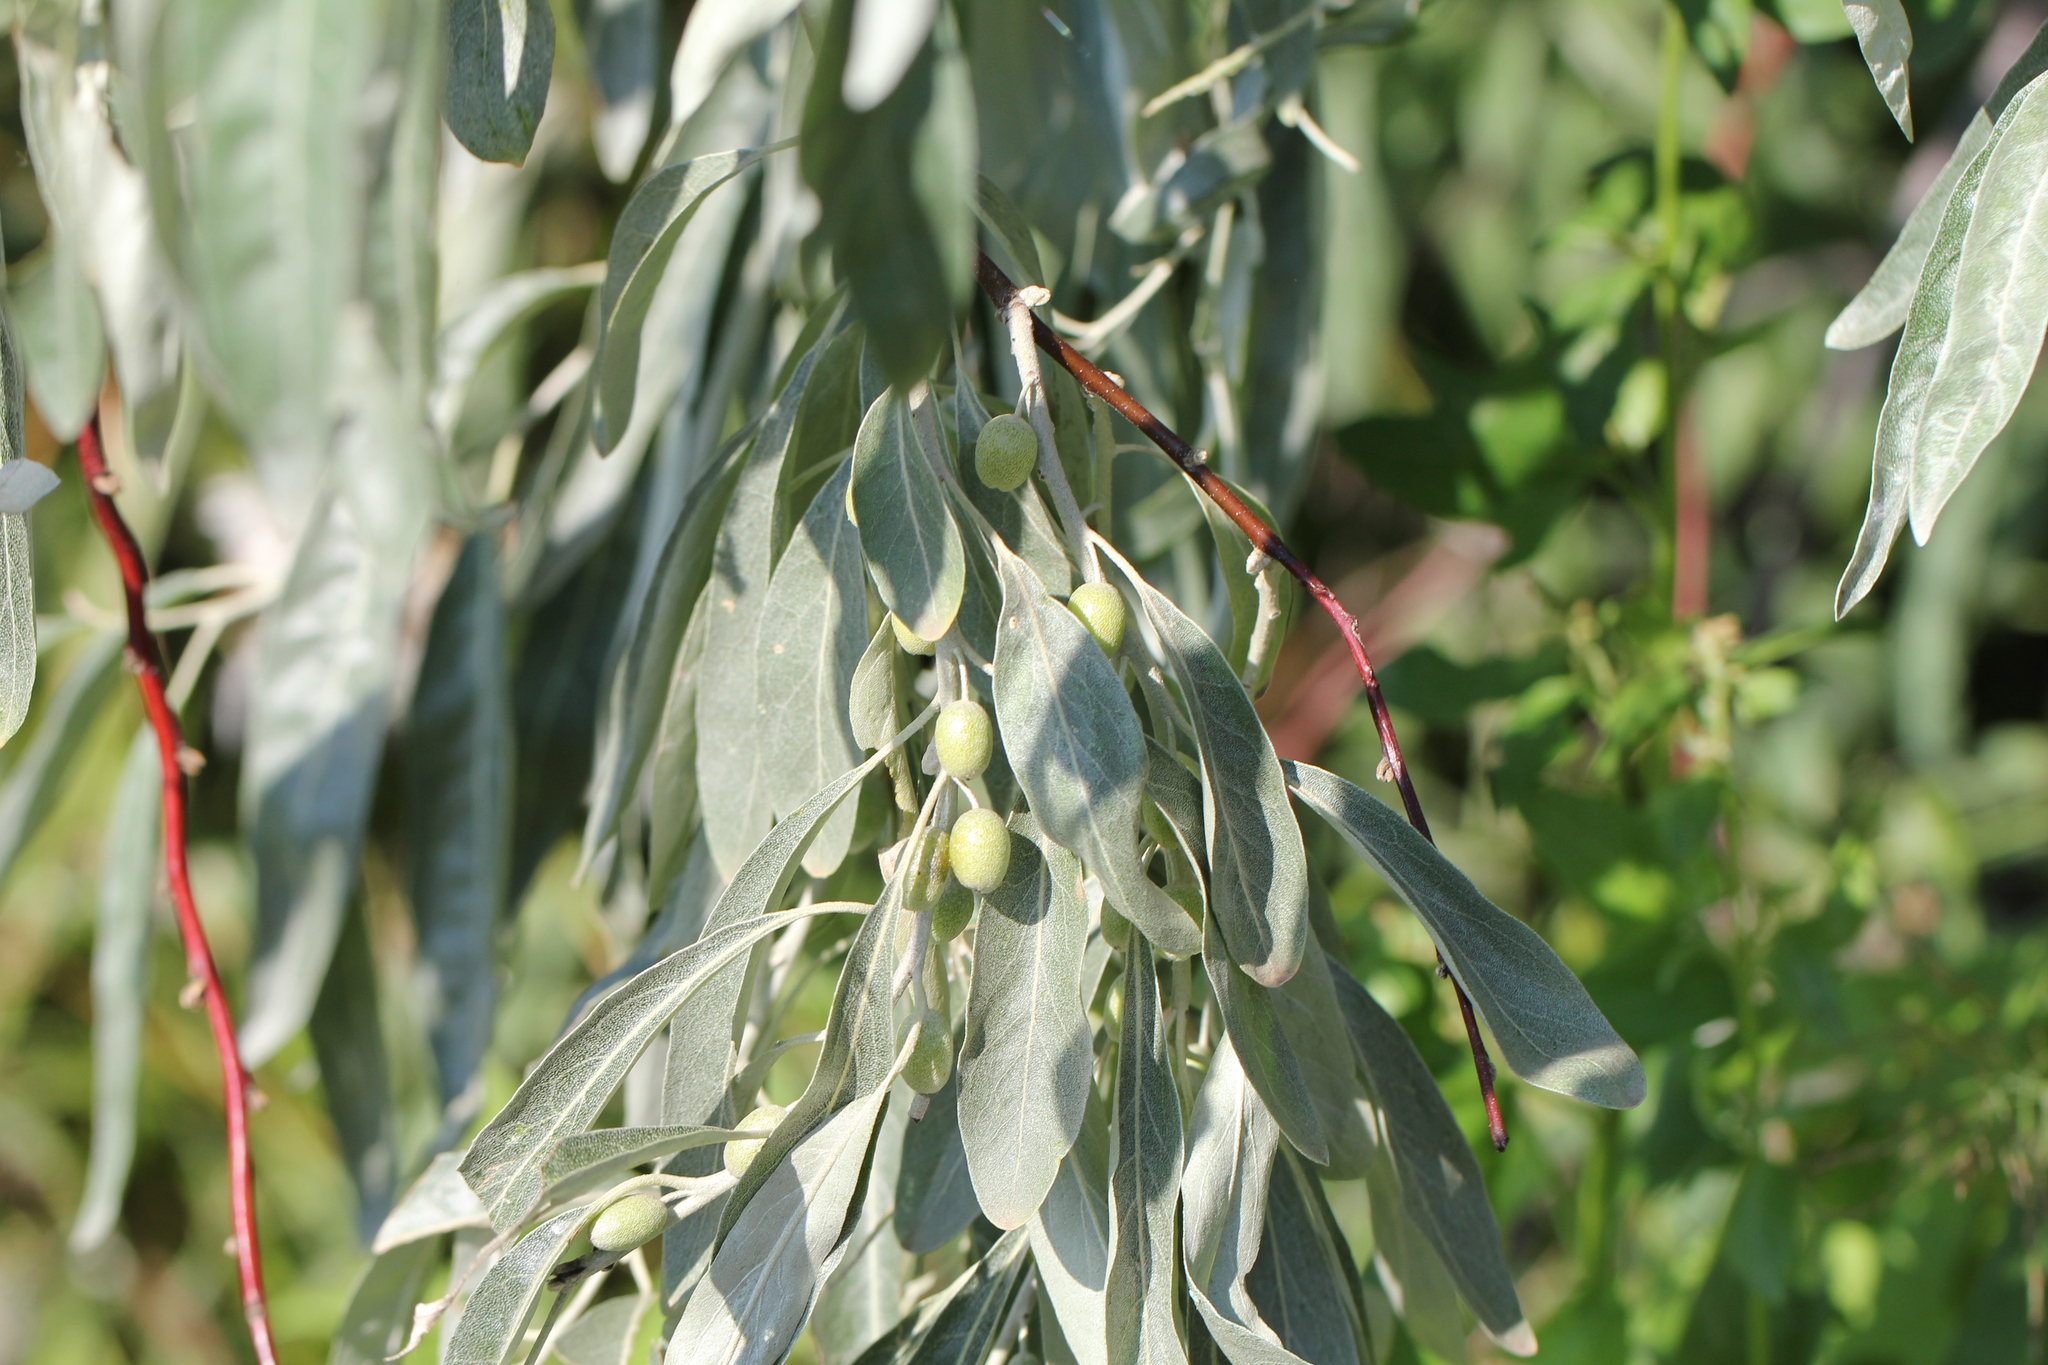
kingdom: Plantae
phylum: Tracheophyta
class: Magnoliopsida
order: Rosales
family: Elaeagnaceae
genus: Elaeagnus
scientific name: Elaeagnus angustifolia
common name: Russian olive
